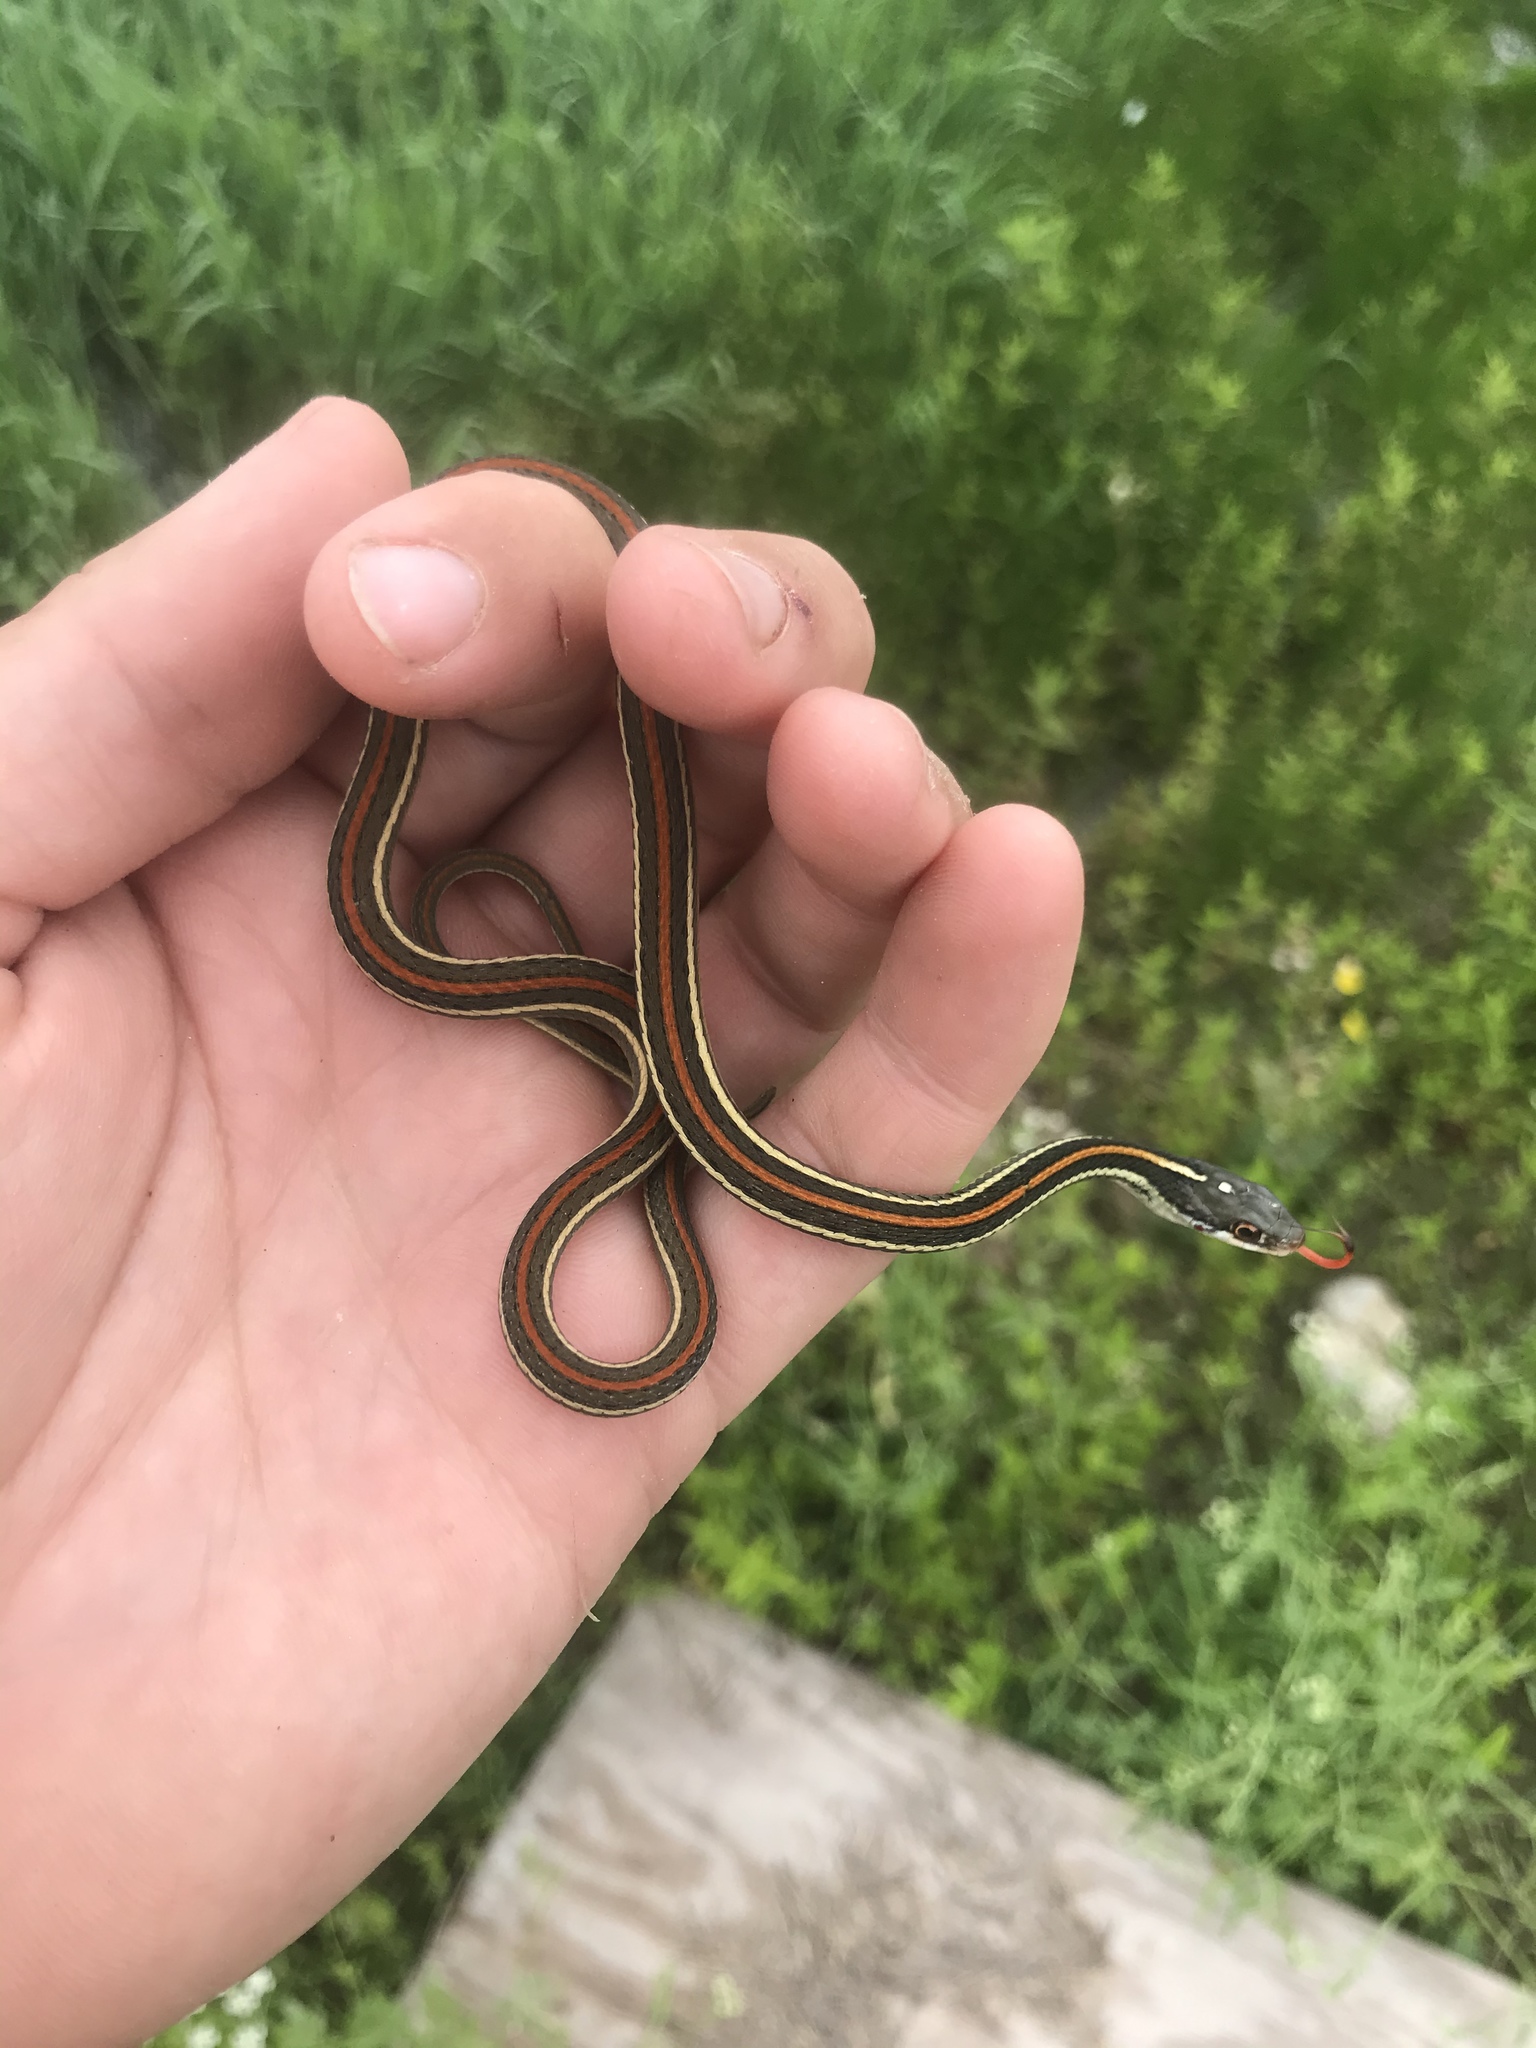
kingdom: Animalia
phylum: Chordata
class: Squamata
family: Colubridae
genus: Thamnophis
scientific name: Thamnophis proximus
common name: Western ribbon snake
